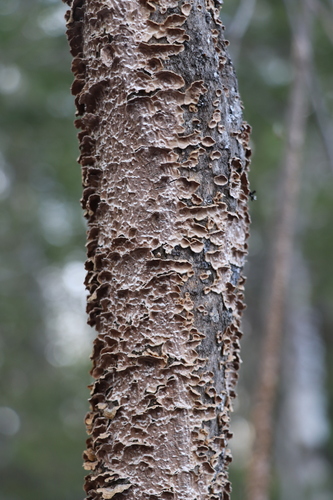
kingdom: Fungi
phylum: Basidiomycota
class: Agaricomycetes
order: Hymenochaetales
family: Hymenochaetaceae
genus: Hydnoporia
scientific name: Hydnoporia tabacina
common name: Willow glue
